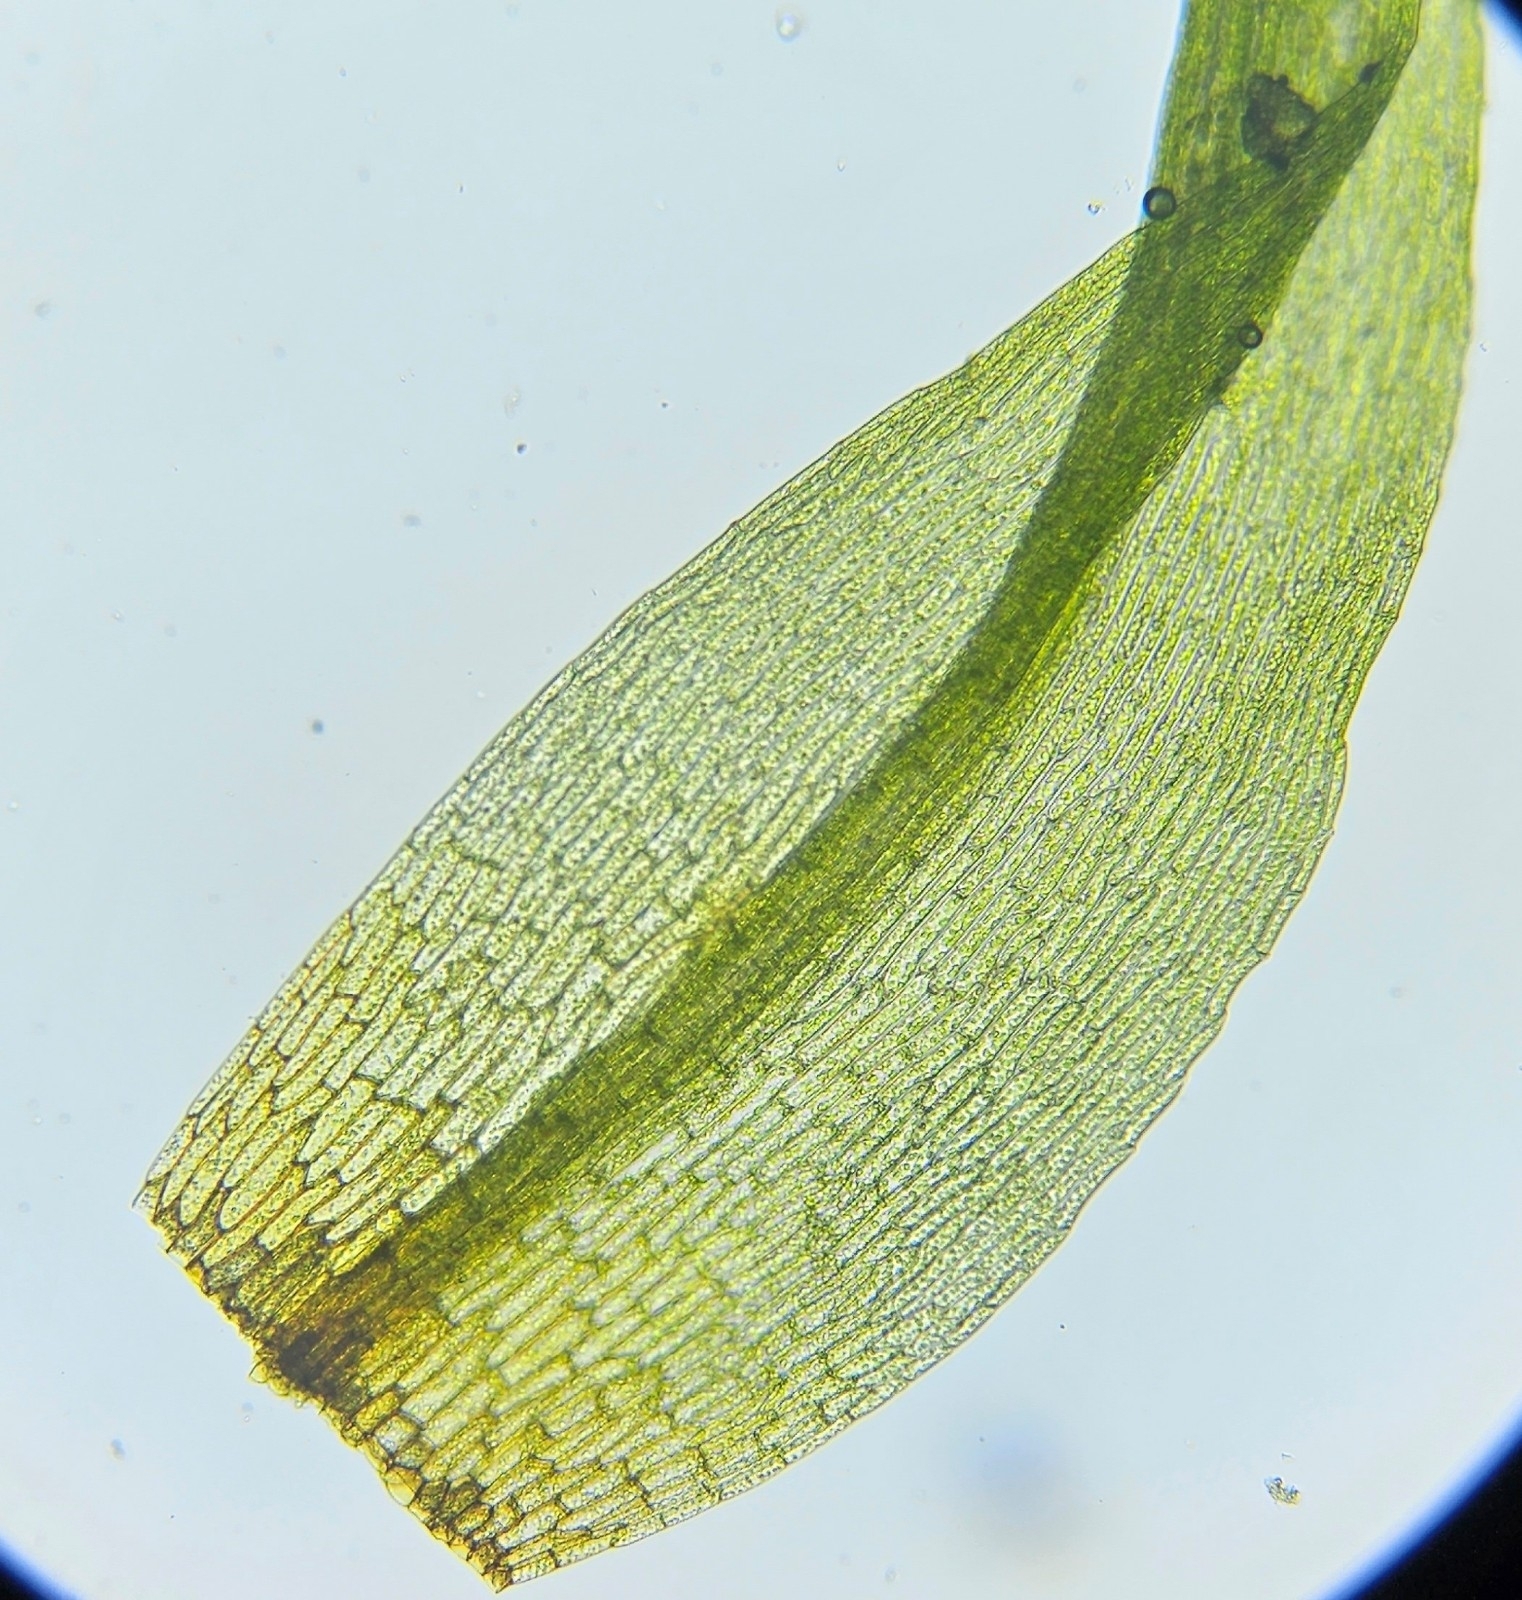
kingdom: Plantae
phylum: Bryophyta
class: Bryopsida
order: Orthodontiales
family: Orthodontiaceae
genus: Orthodontium
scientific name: Orthodontium lineare
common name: Cape thread-moss
